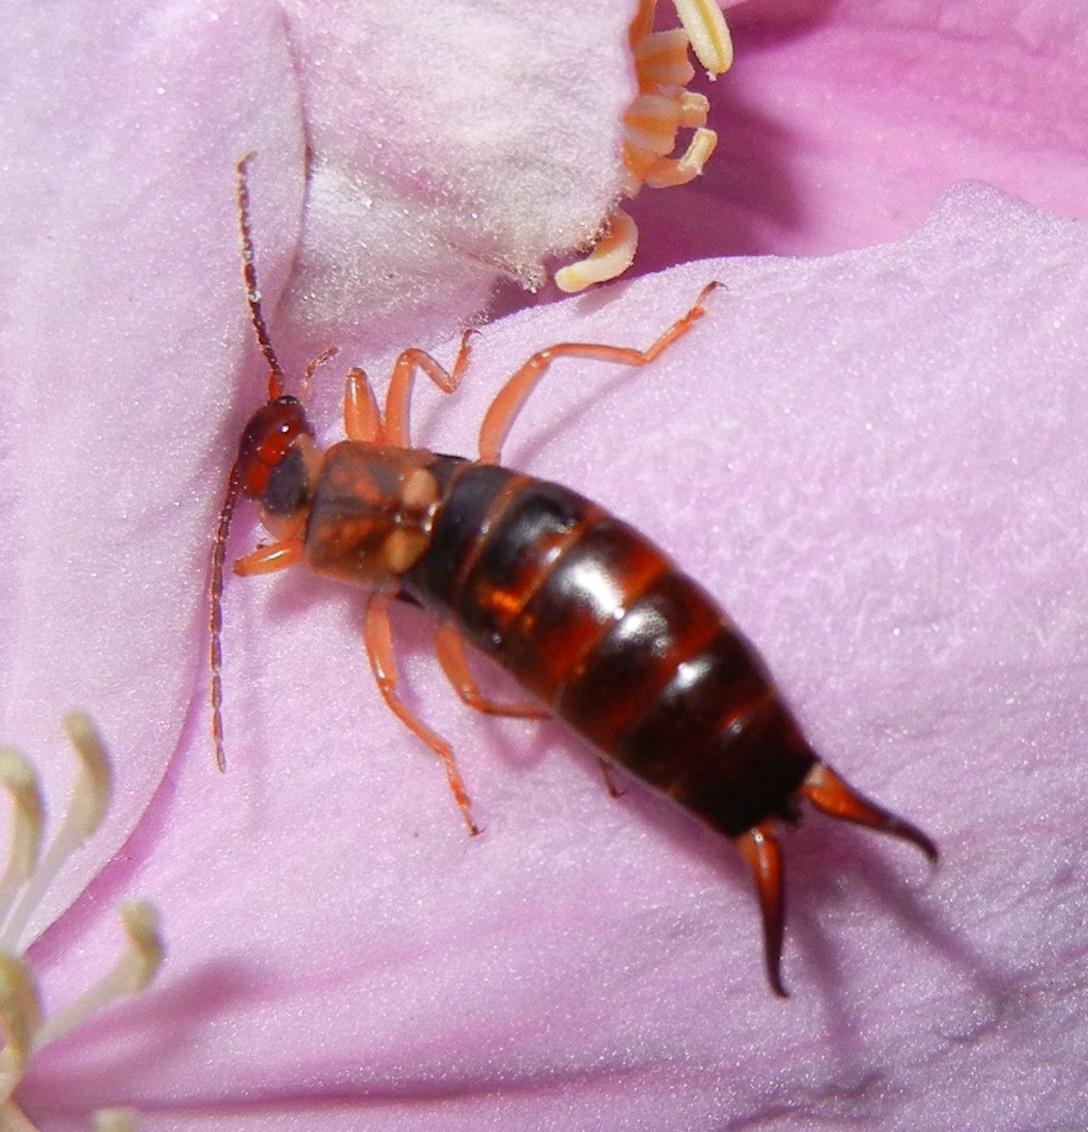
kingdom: Animalia
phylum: Arthropoda
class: Insecta
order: Dermaptera
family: Forficulidae
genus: Forficula
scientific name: Forficula
